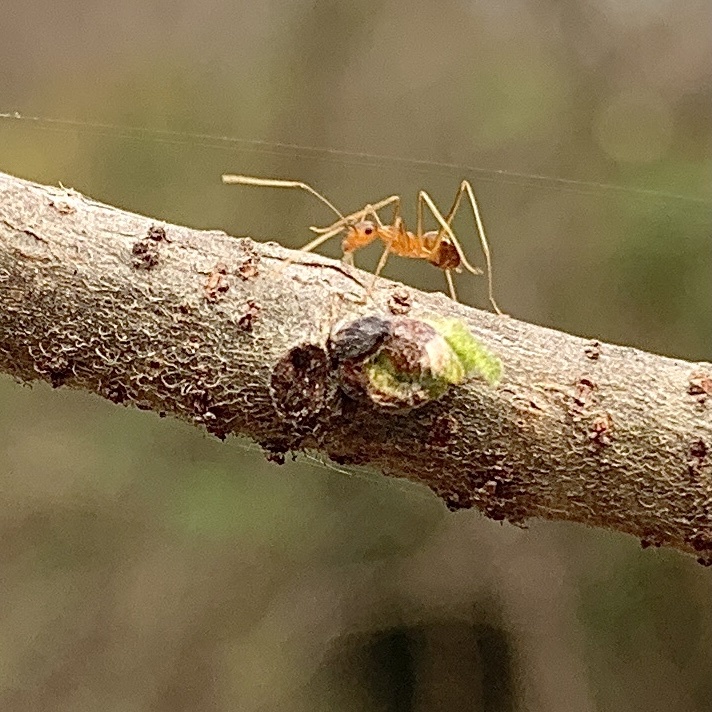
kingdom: Animalia
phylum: Arthropoda
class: Insecta
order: Hymenoptera
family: Formicidae
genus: Anoplolepis
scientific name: Anoplolepis gracilipes
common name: Ant
